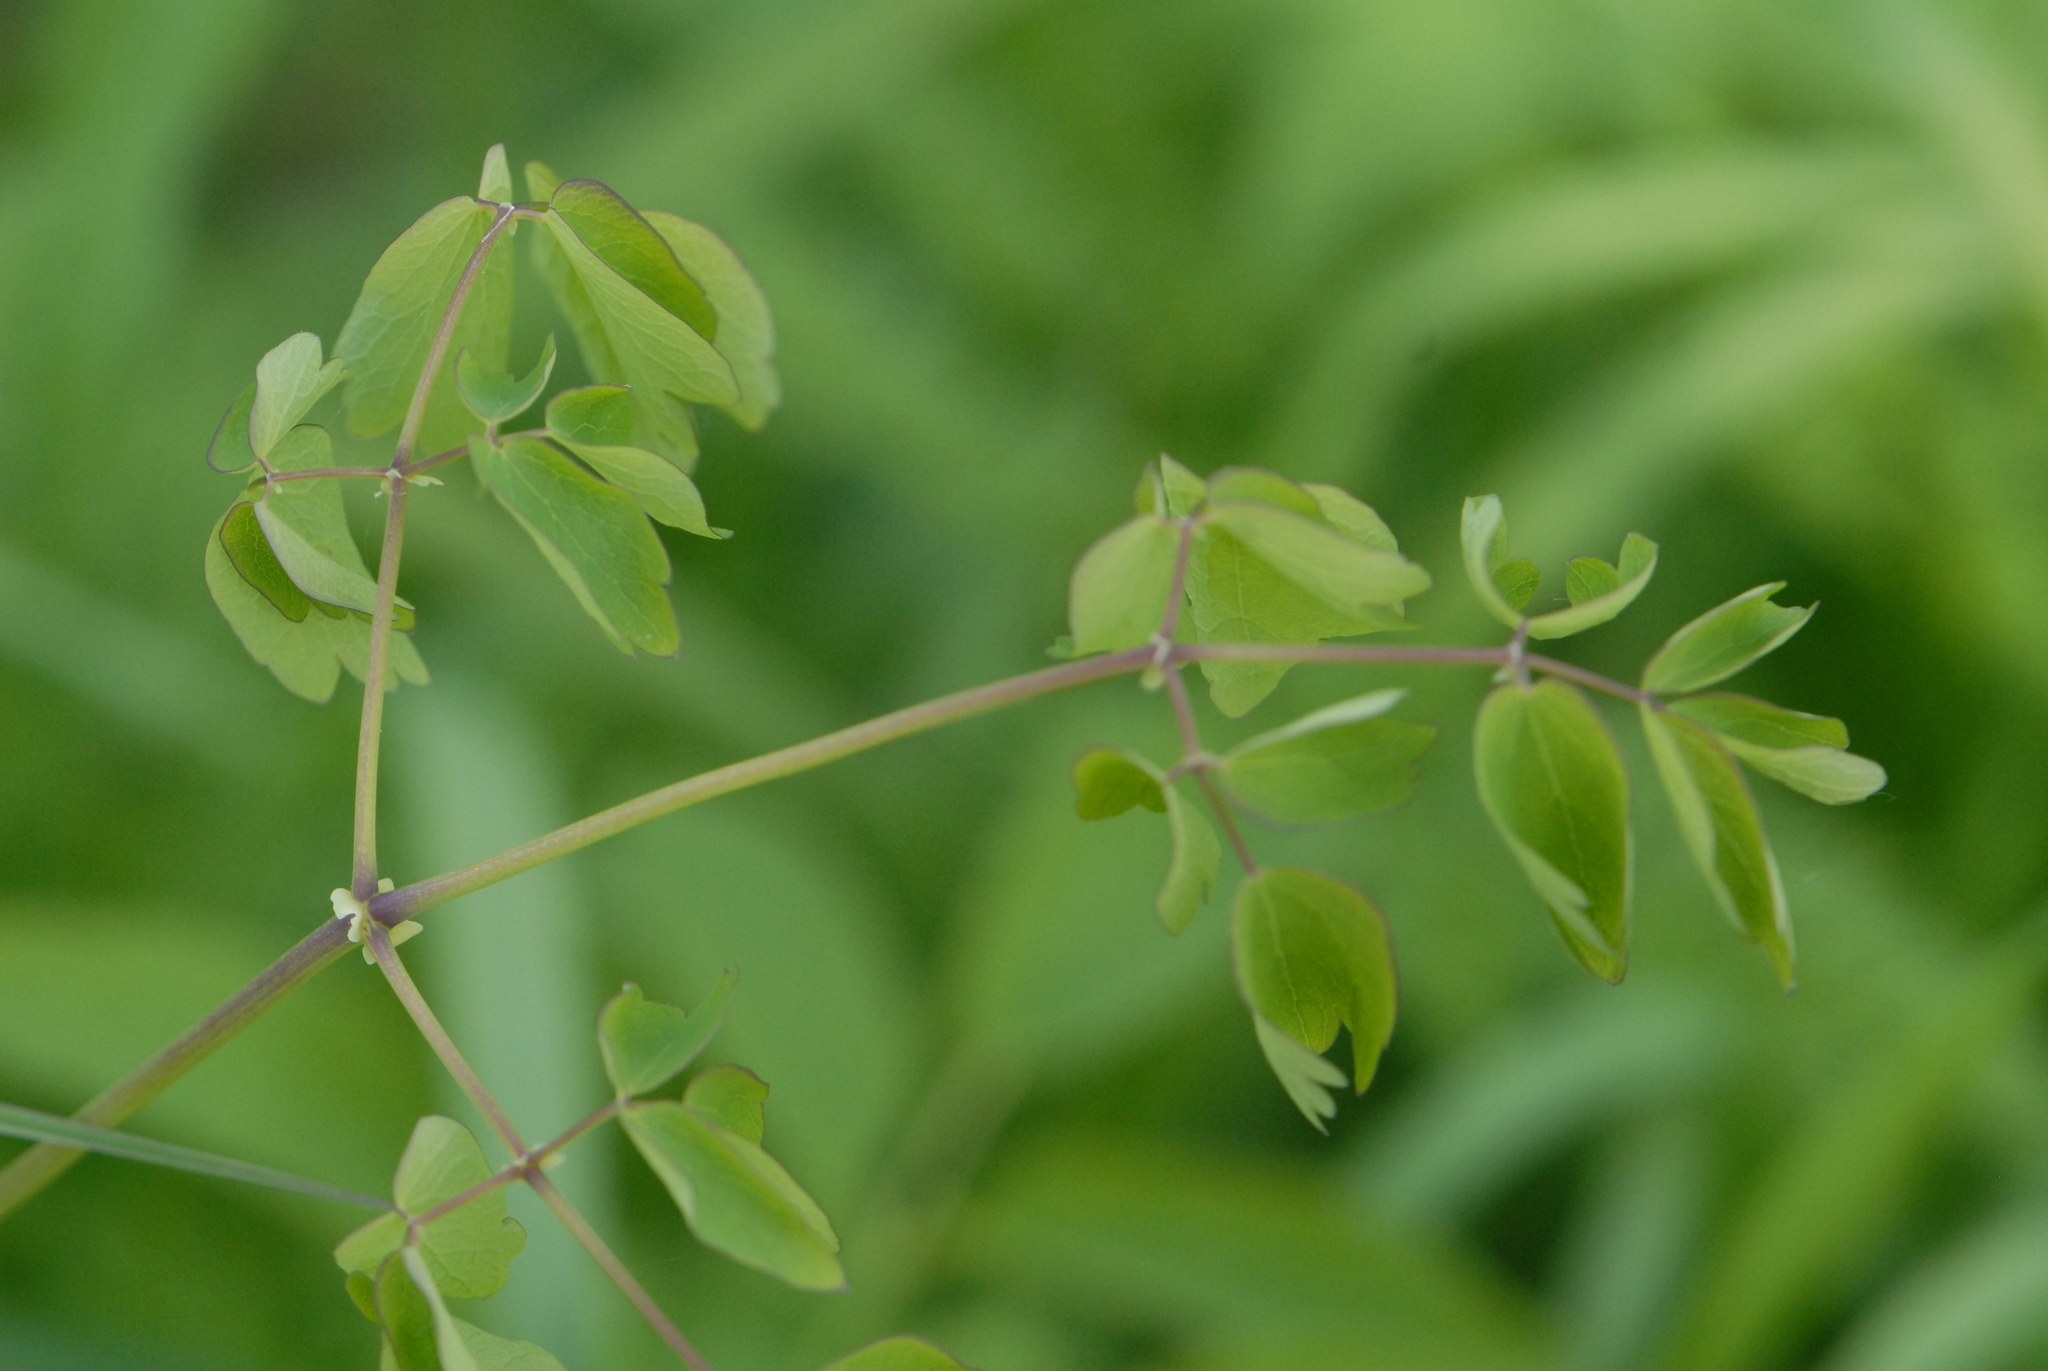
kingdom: Plantae
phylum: Tracheophyta
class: Magnoliopsida
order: Ranunculales
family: Ranunculaceae
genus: Thalictrum
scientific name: Thalictrum aquilegiifolium
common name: French meadow-rue
